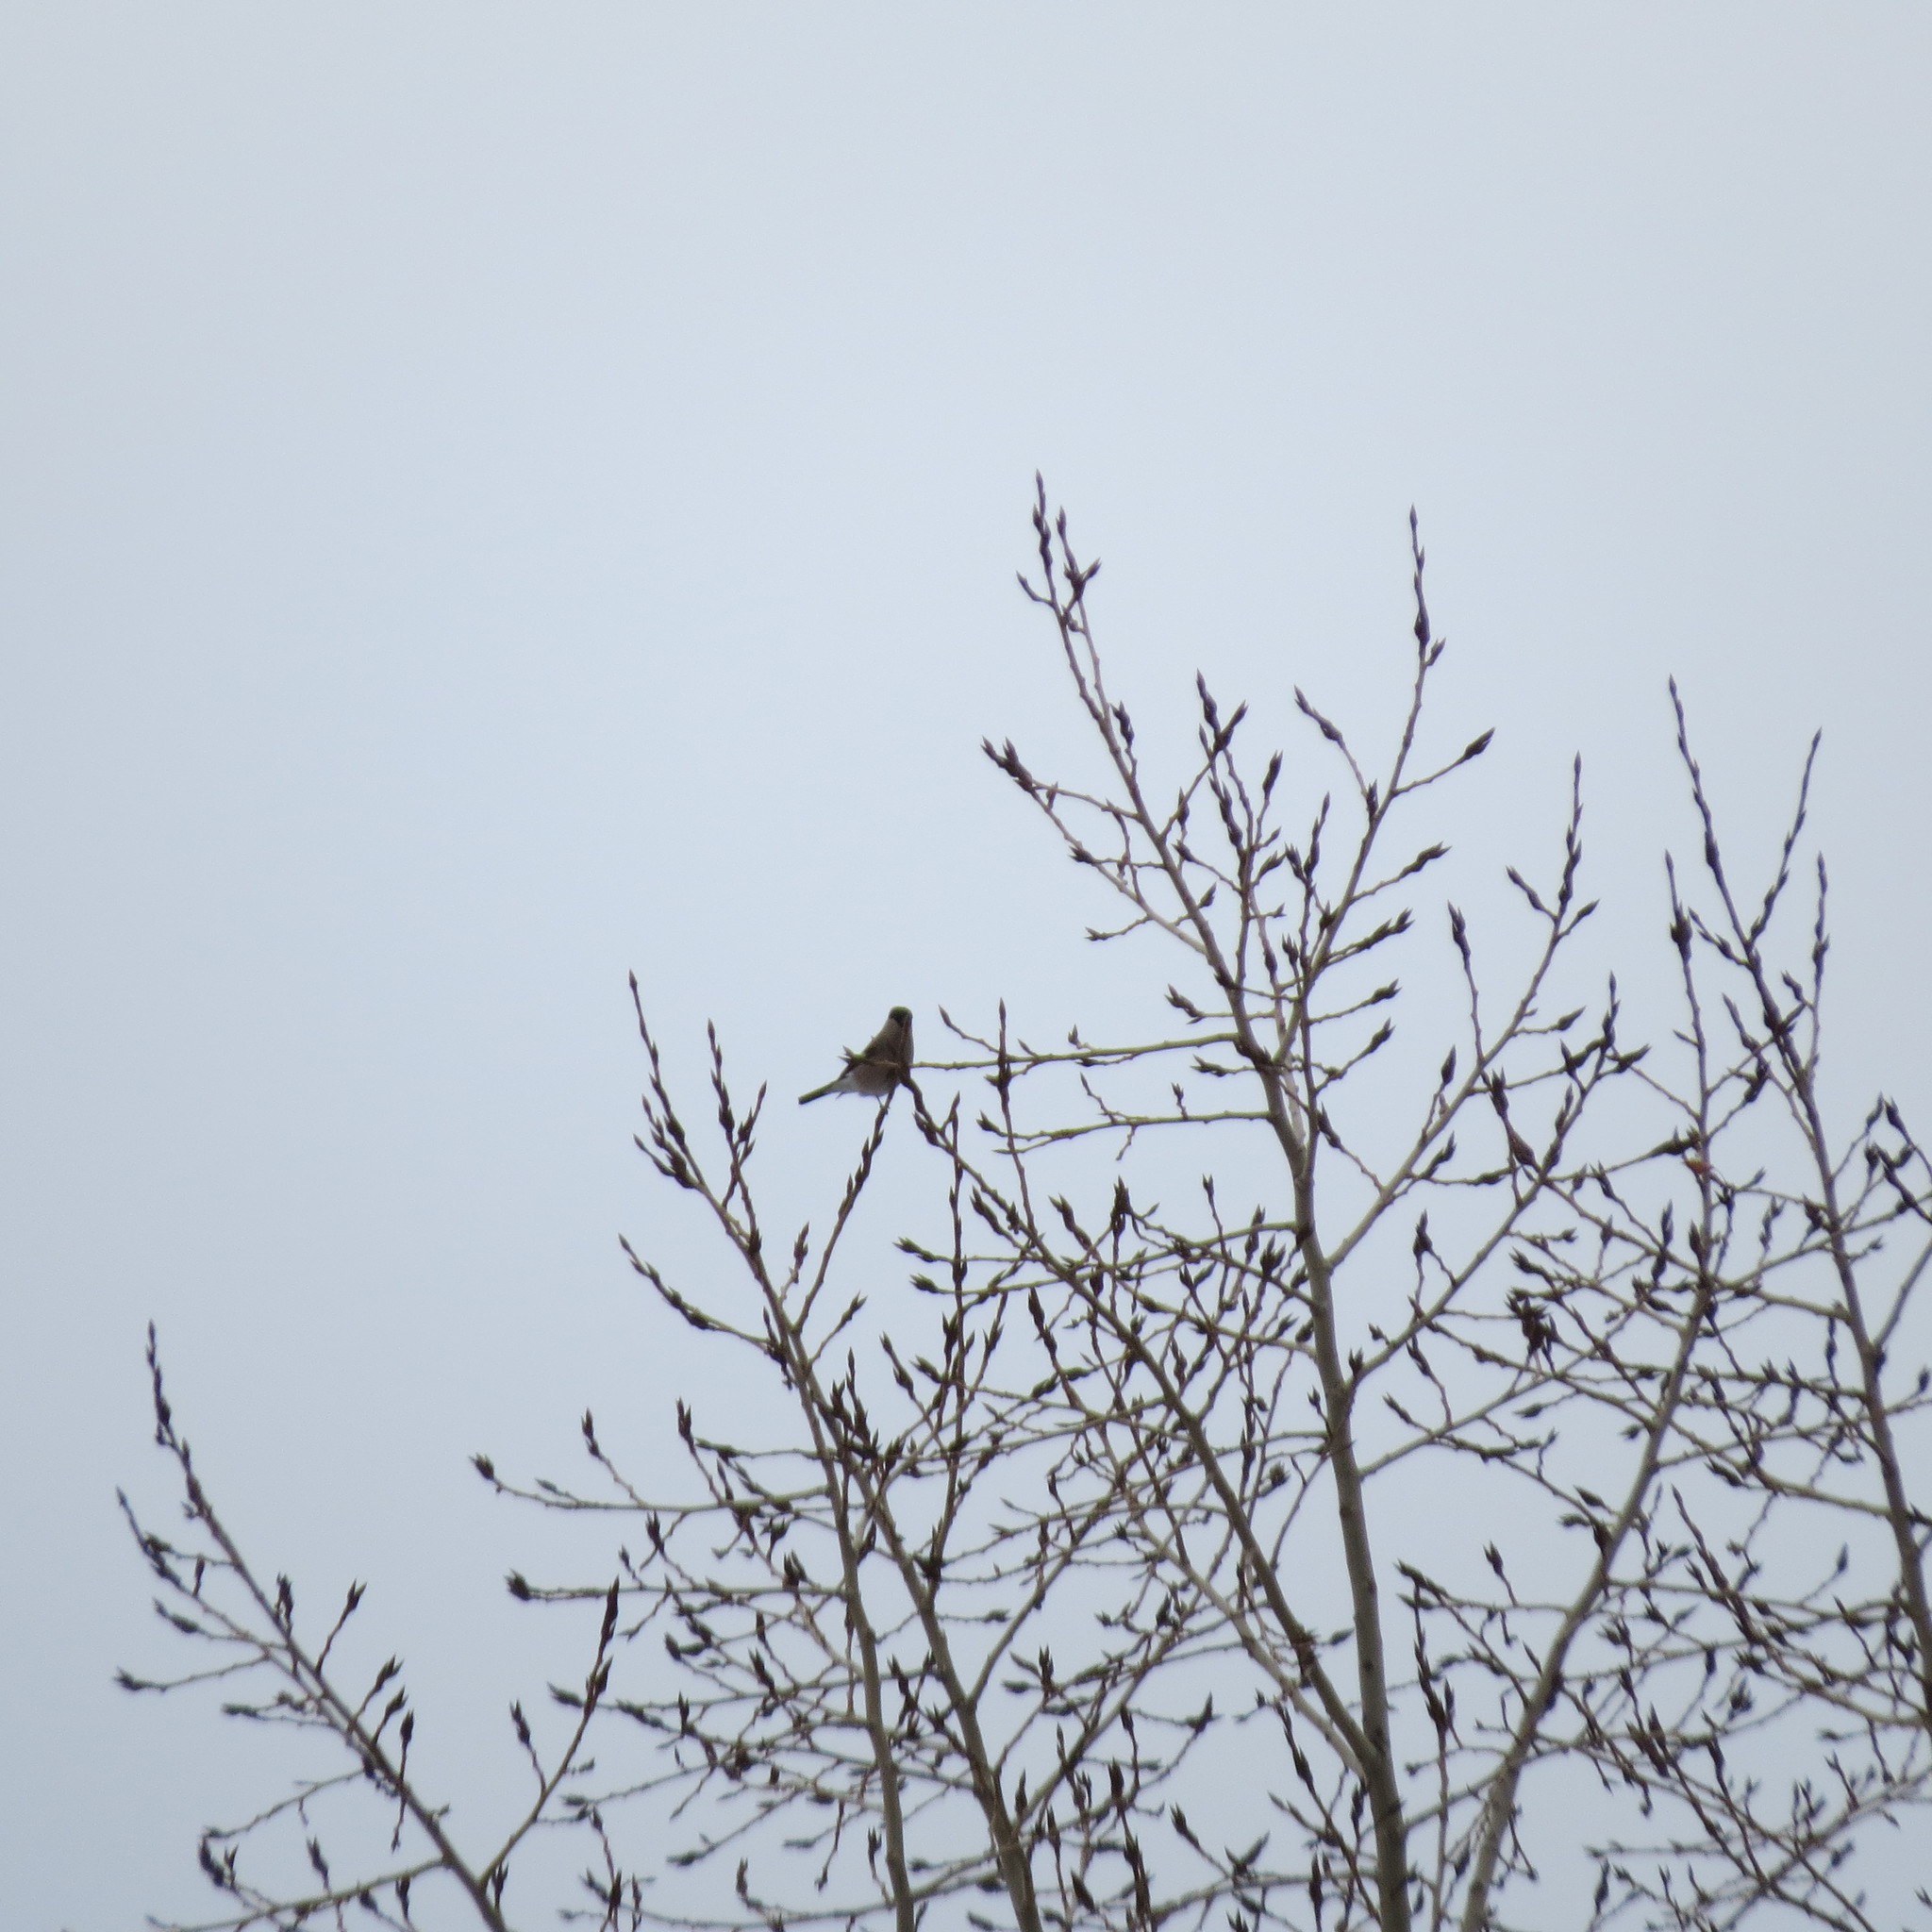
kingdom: Animalia
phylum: Chordata
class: Aves
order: Passeriformes
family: Fringillidae
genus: Pyrrhula
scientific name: Pyrrhula pyrrhula
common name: Eurasian bullfinch
